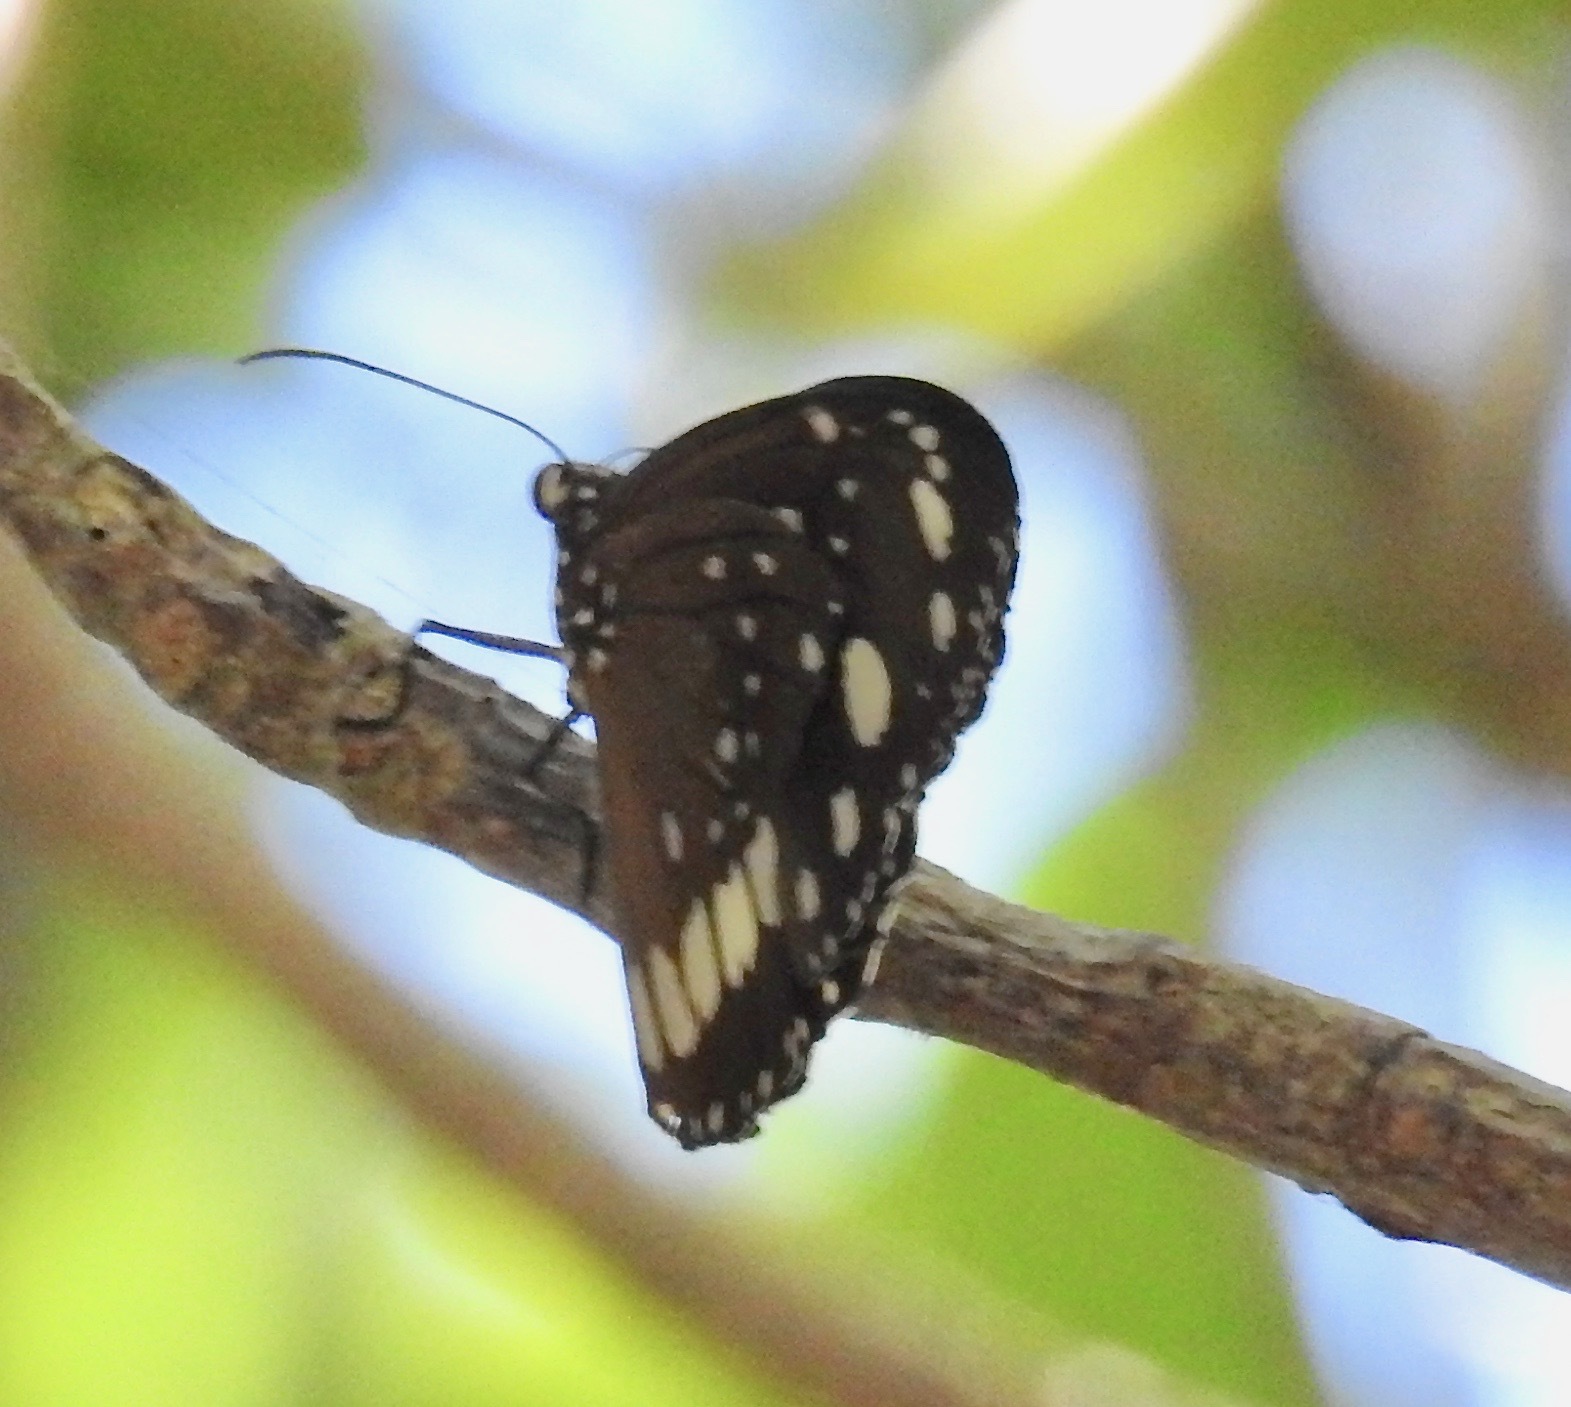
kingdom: Animalia
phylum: Arthropoda
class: Insecta
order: Lepidoptera
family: Nymphalidae
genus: Euploea
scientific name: Euploea core
